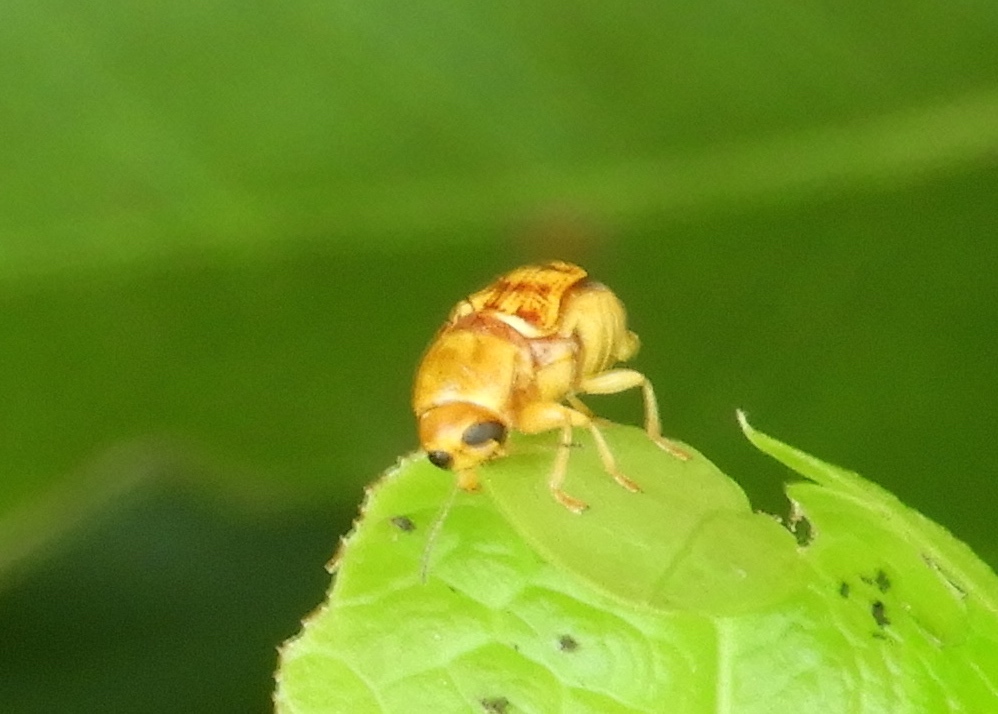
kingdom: Animalia
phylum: Arthropoda
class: Insecta
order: Coleoptera
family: Chrysomelidae
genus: Griburius
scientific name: Griburius puncturatus
